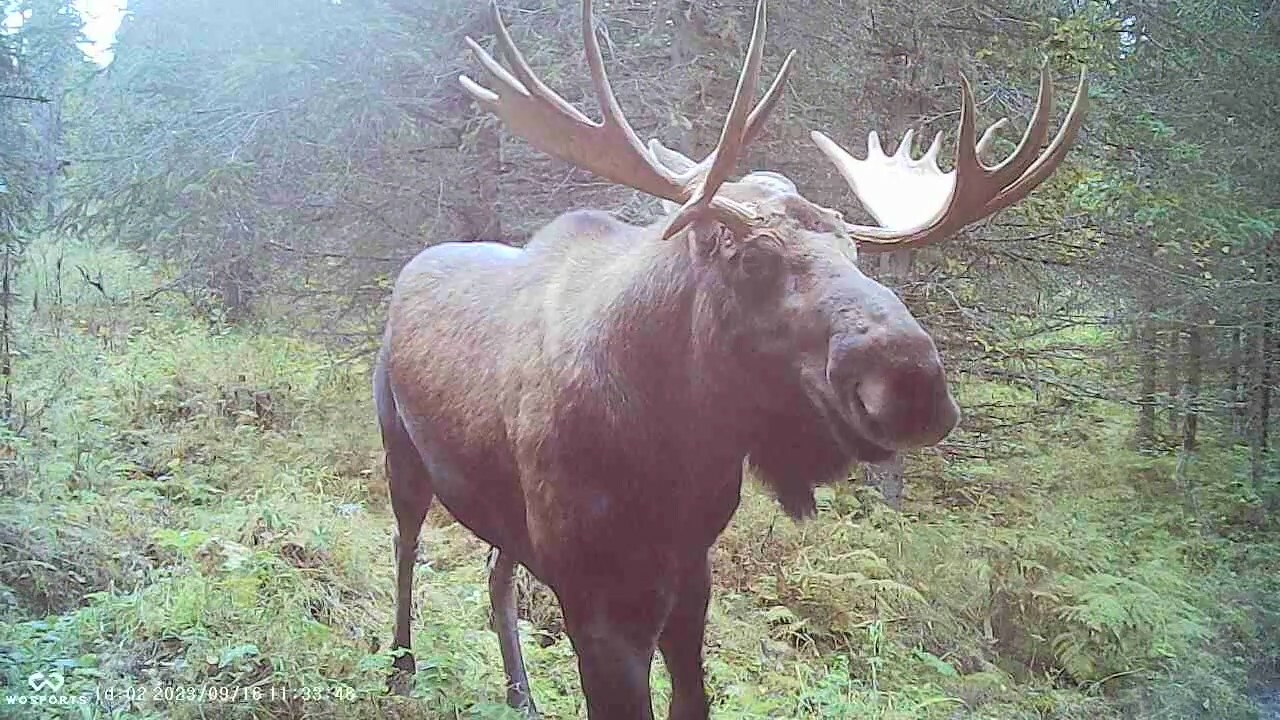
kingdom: Animalia
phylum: Chordata
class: Mammalia
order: Artiodactyla
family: Cervidae
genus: Alces
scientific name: Alces alces
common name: Moose
